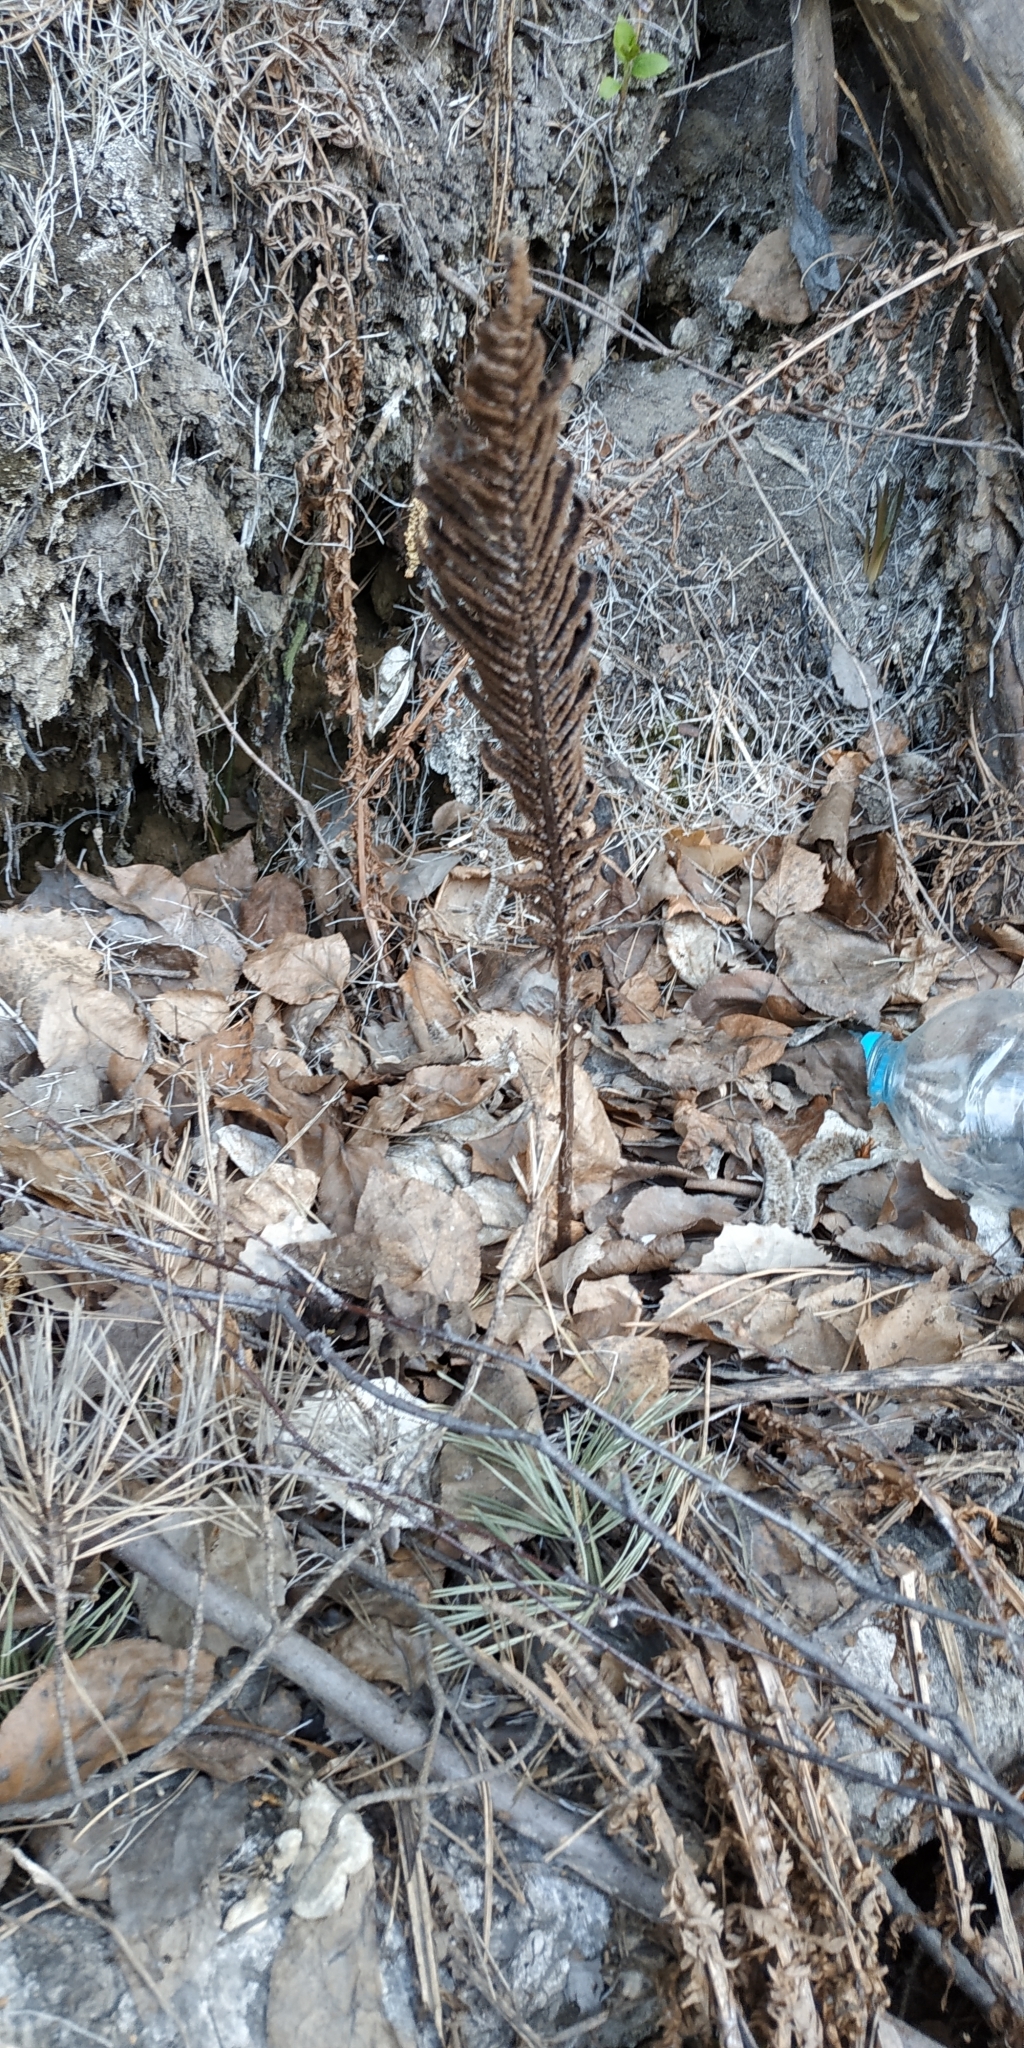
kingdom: Plantae
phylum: Tracheophyta
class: Polypodiopsida
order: Polypodiales
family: Onocleaceae
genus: Matteuccia
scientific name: Matteuccia struthiopteris
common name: Ostrich fern
